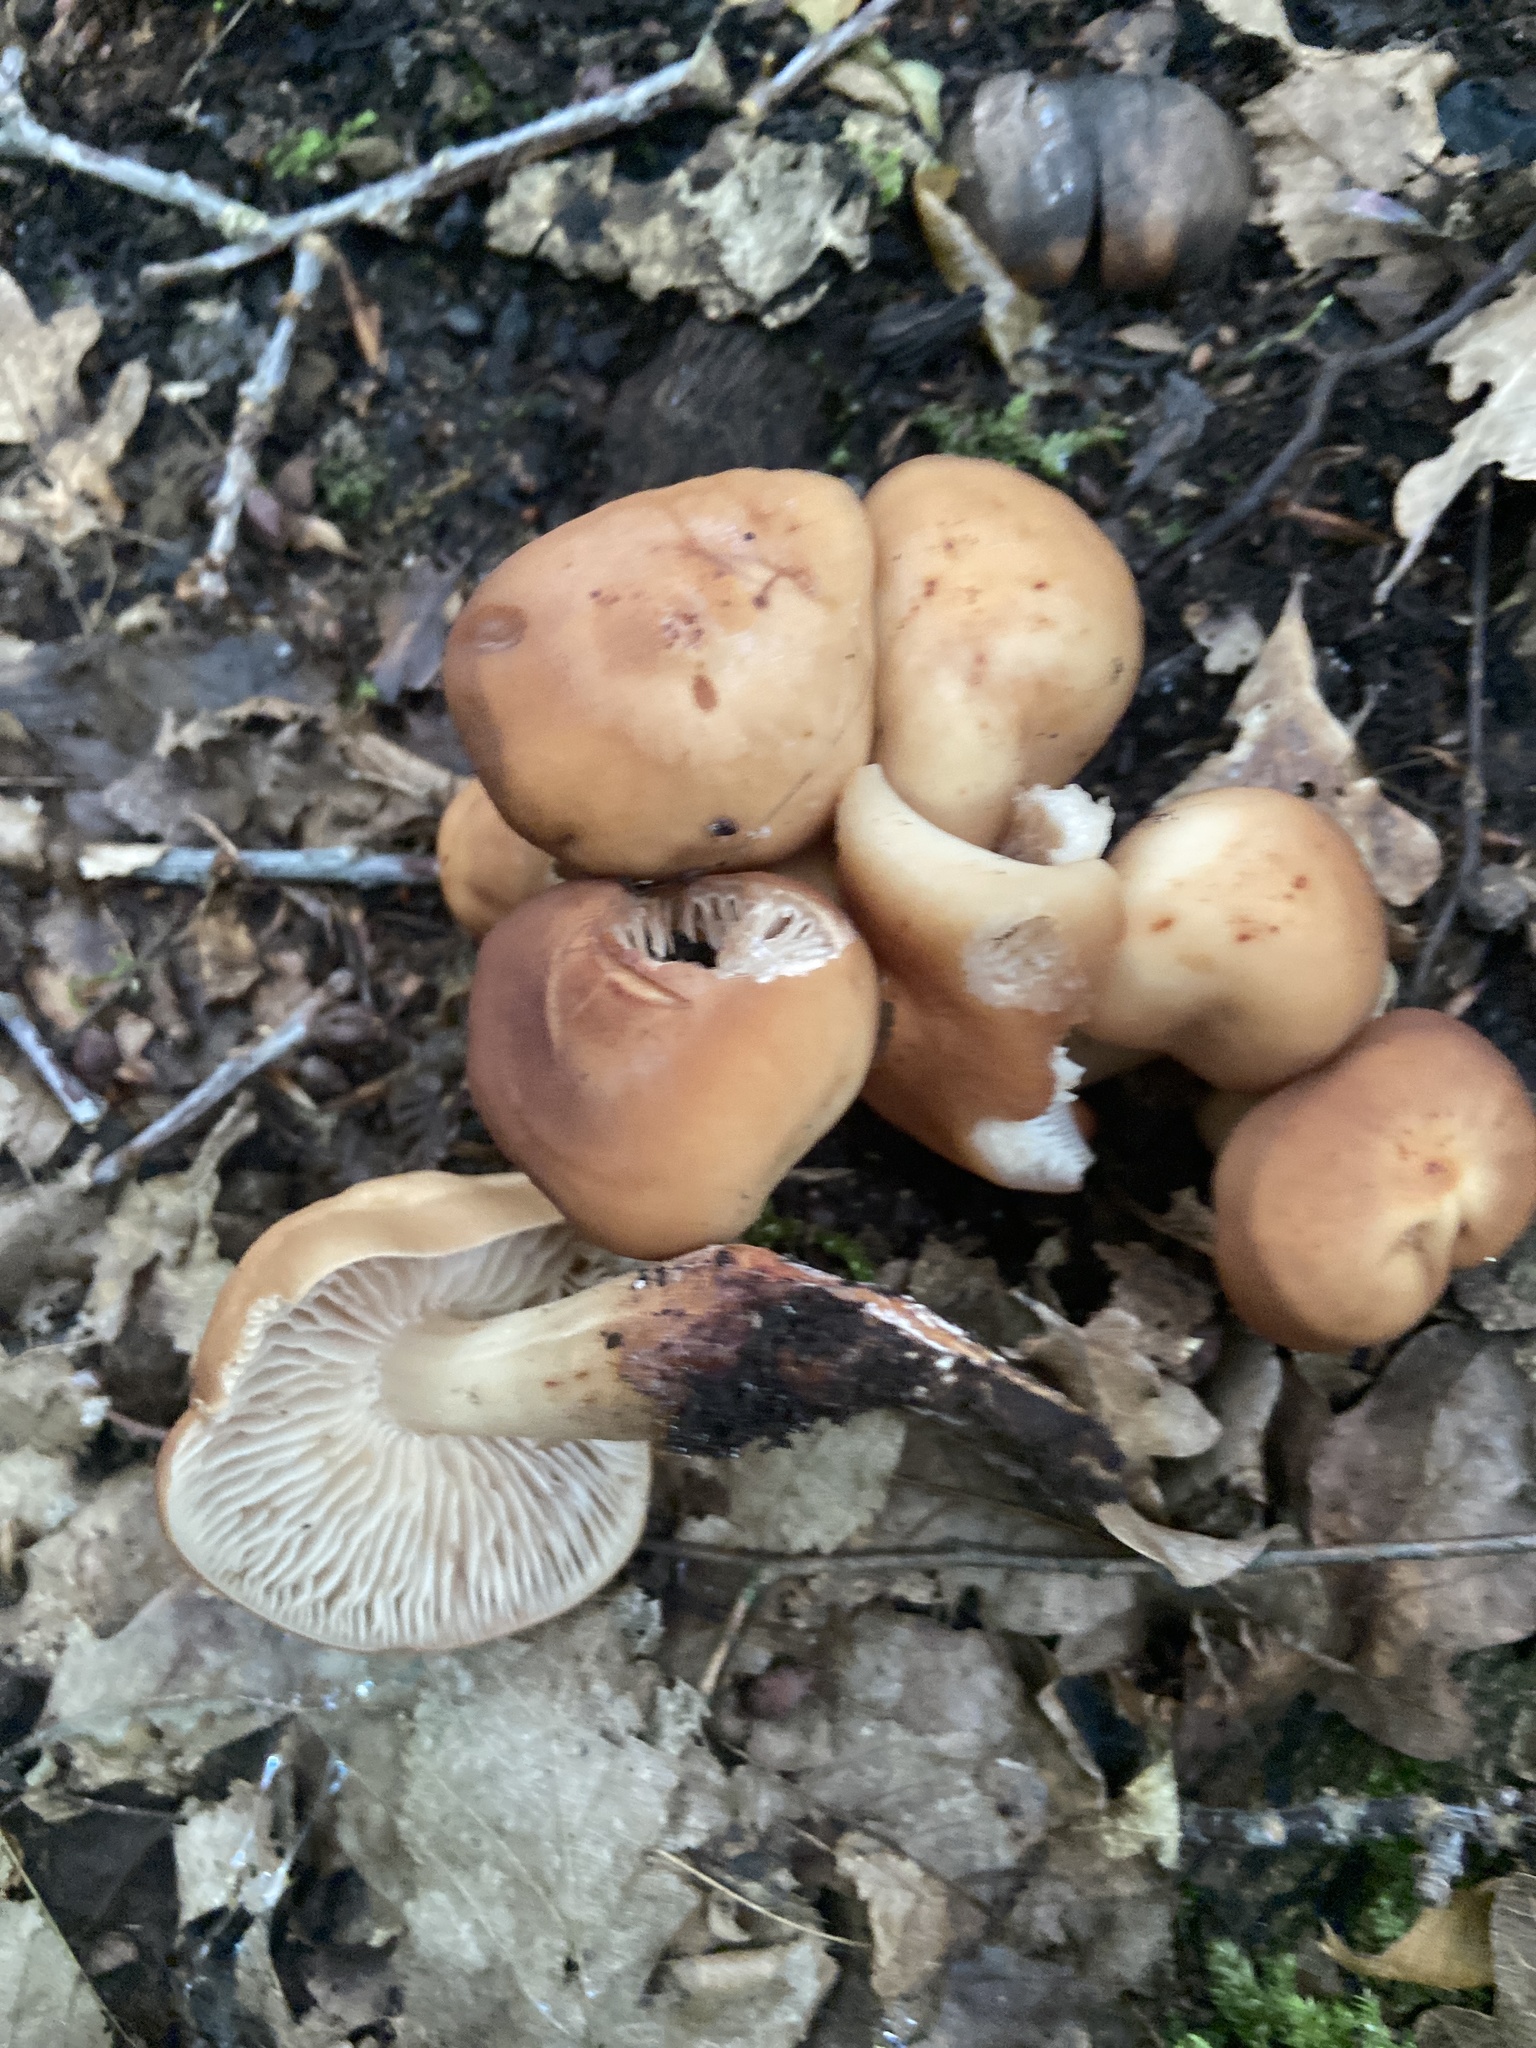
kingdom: Fungi
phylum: Basidiomycota
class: Agaricomycetes
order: Agaricales
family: Omphalotaceae
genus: Gymnopus
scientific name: Gymnopus fusipes
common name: Spindle shank
